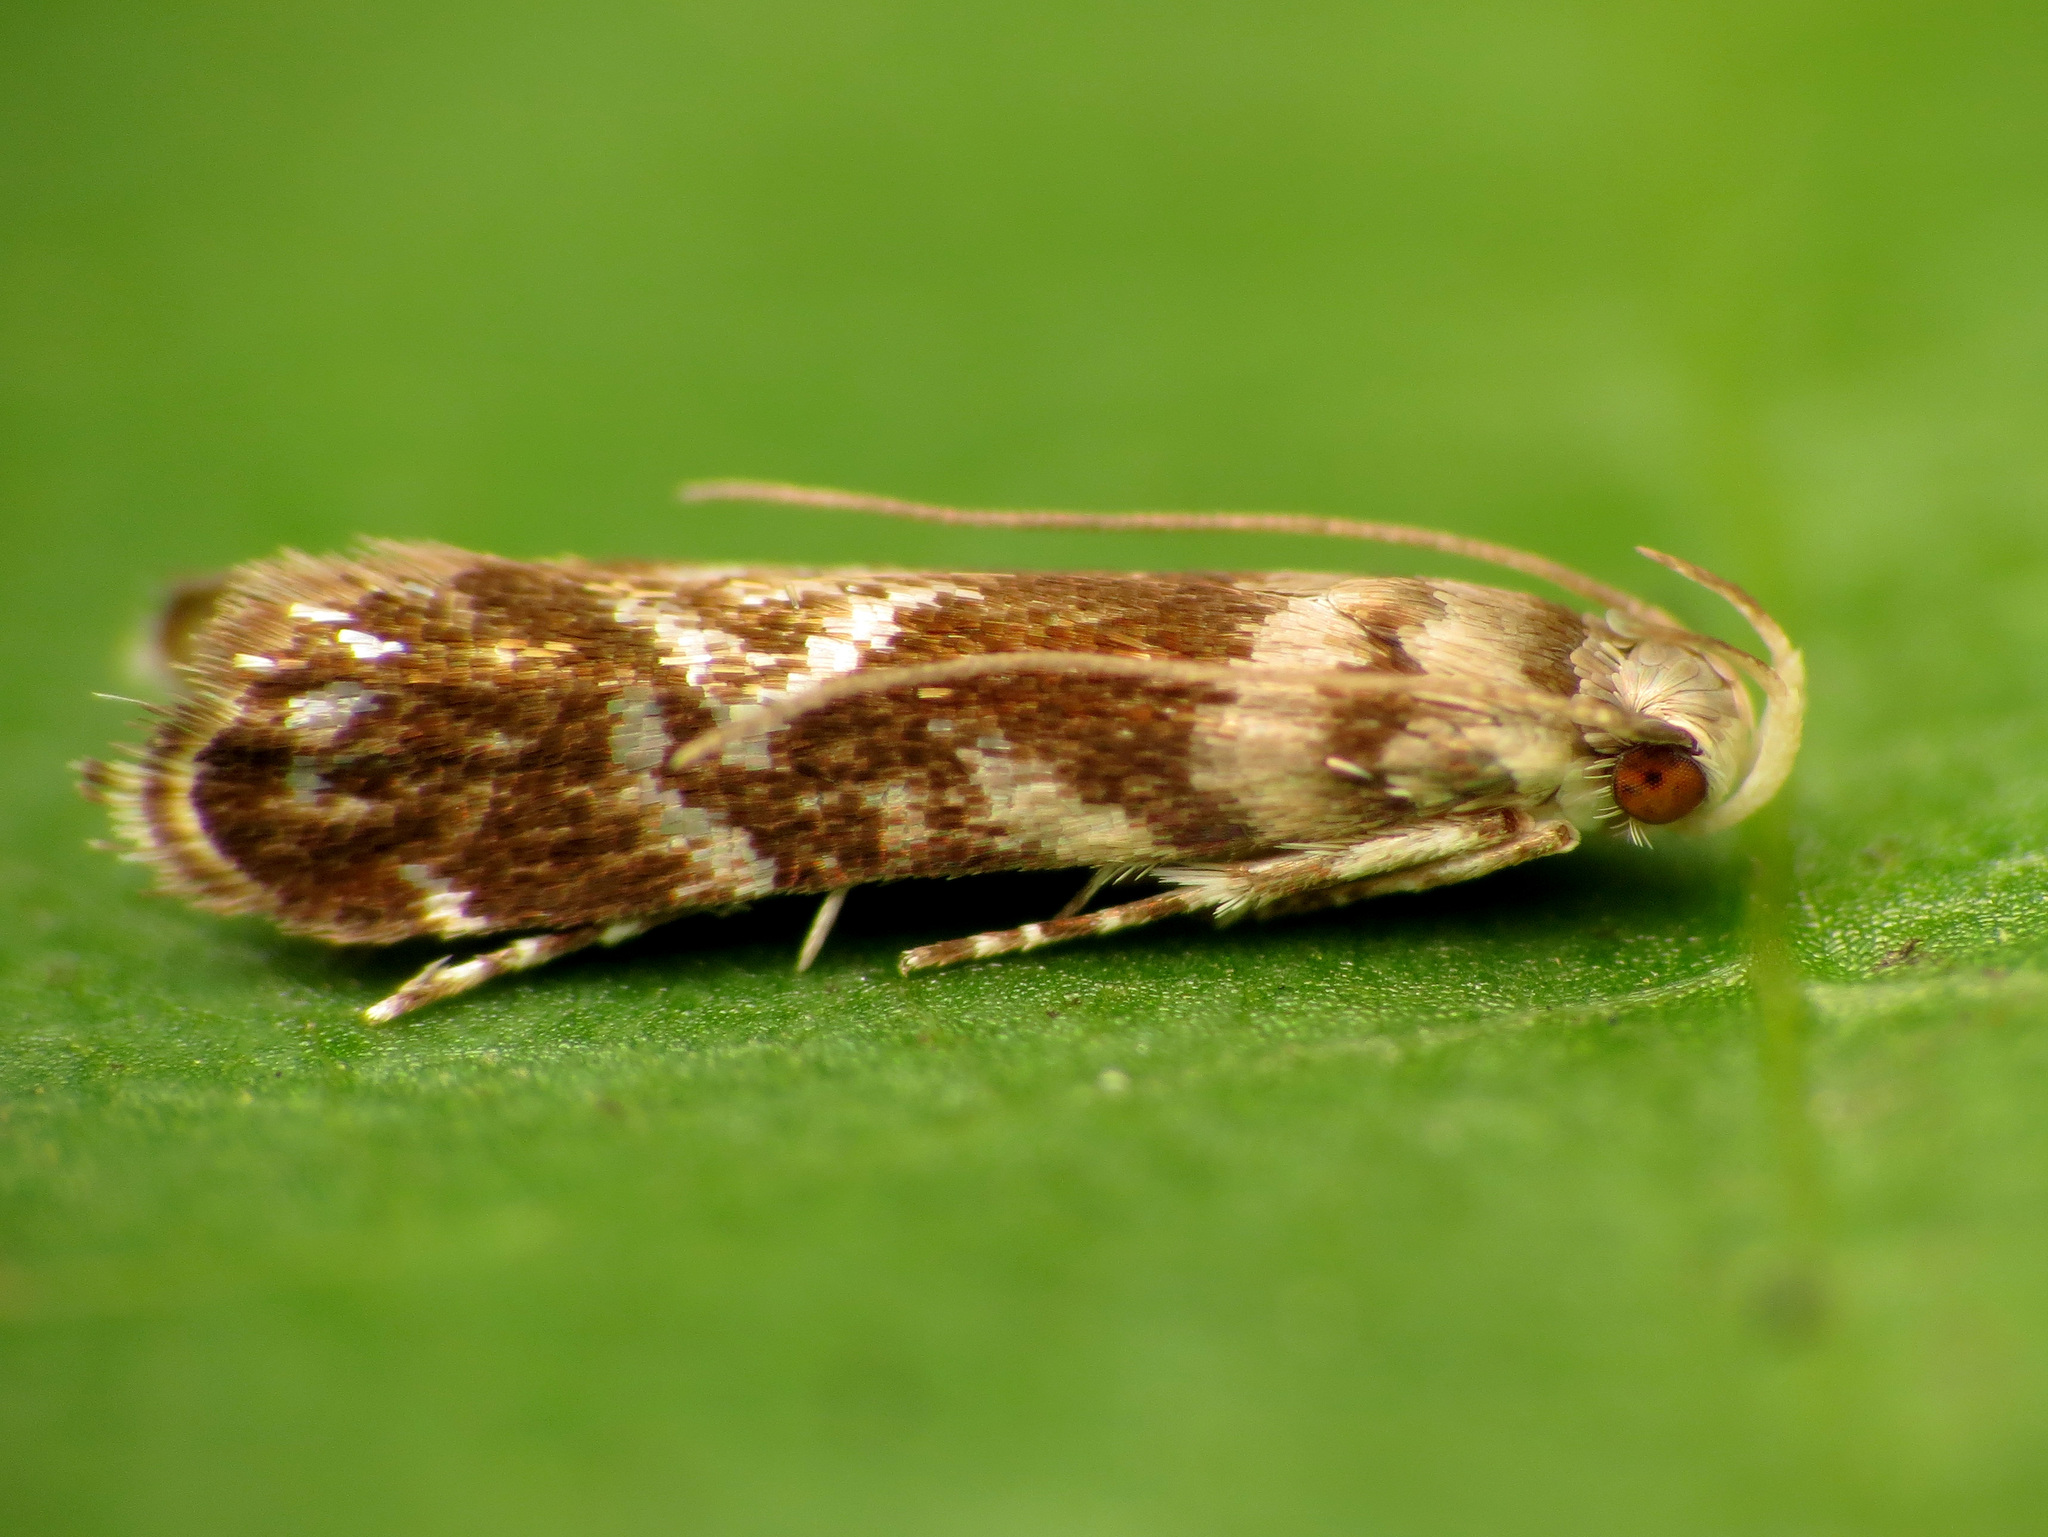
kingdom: Animalia
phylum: Arthropoda
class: Insecta
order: Lepidoptera
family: Gelechiidae
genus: Holophysis
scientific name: Holophysis emblemella
